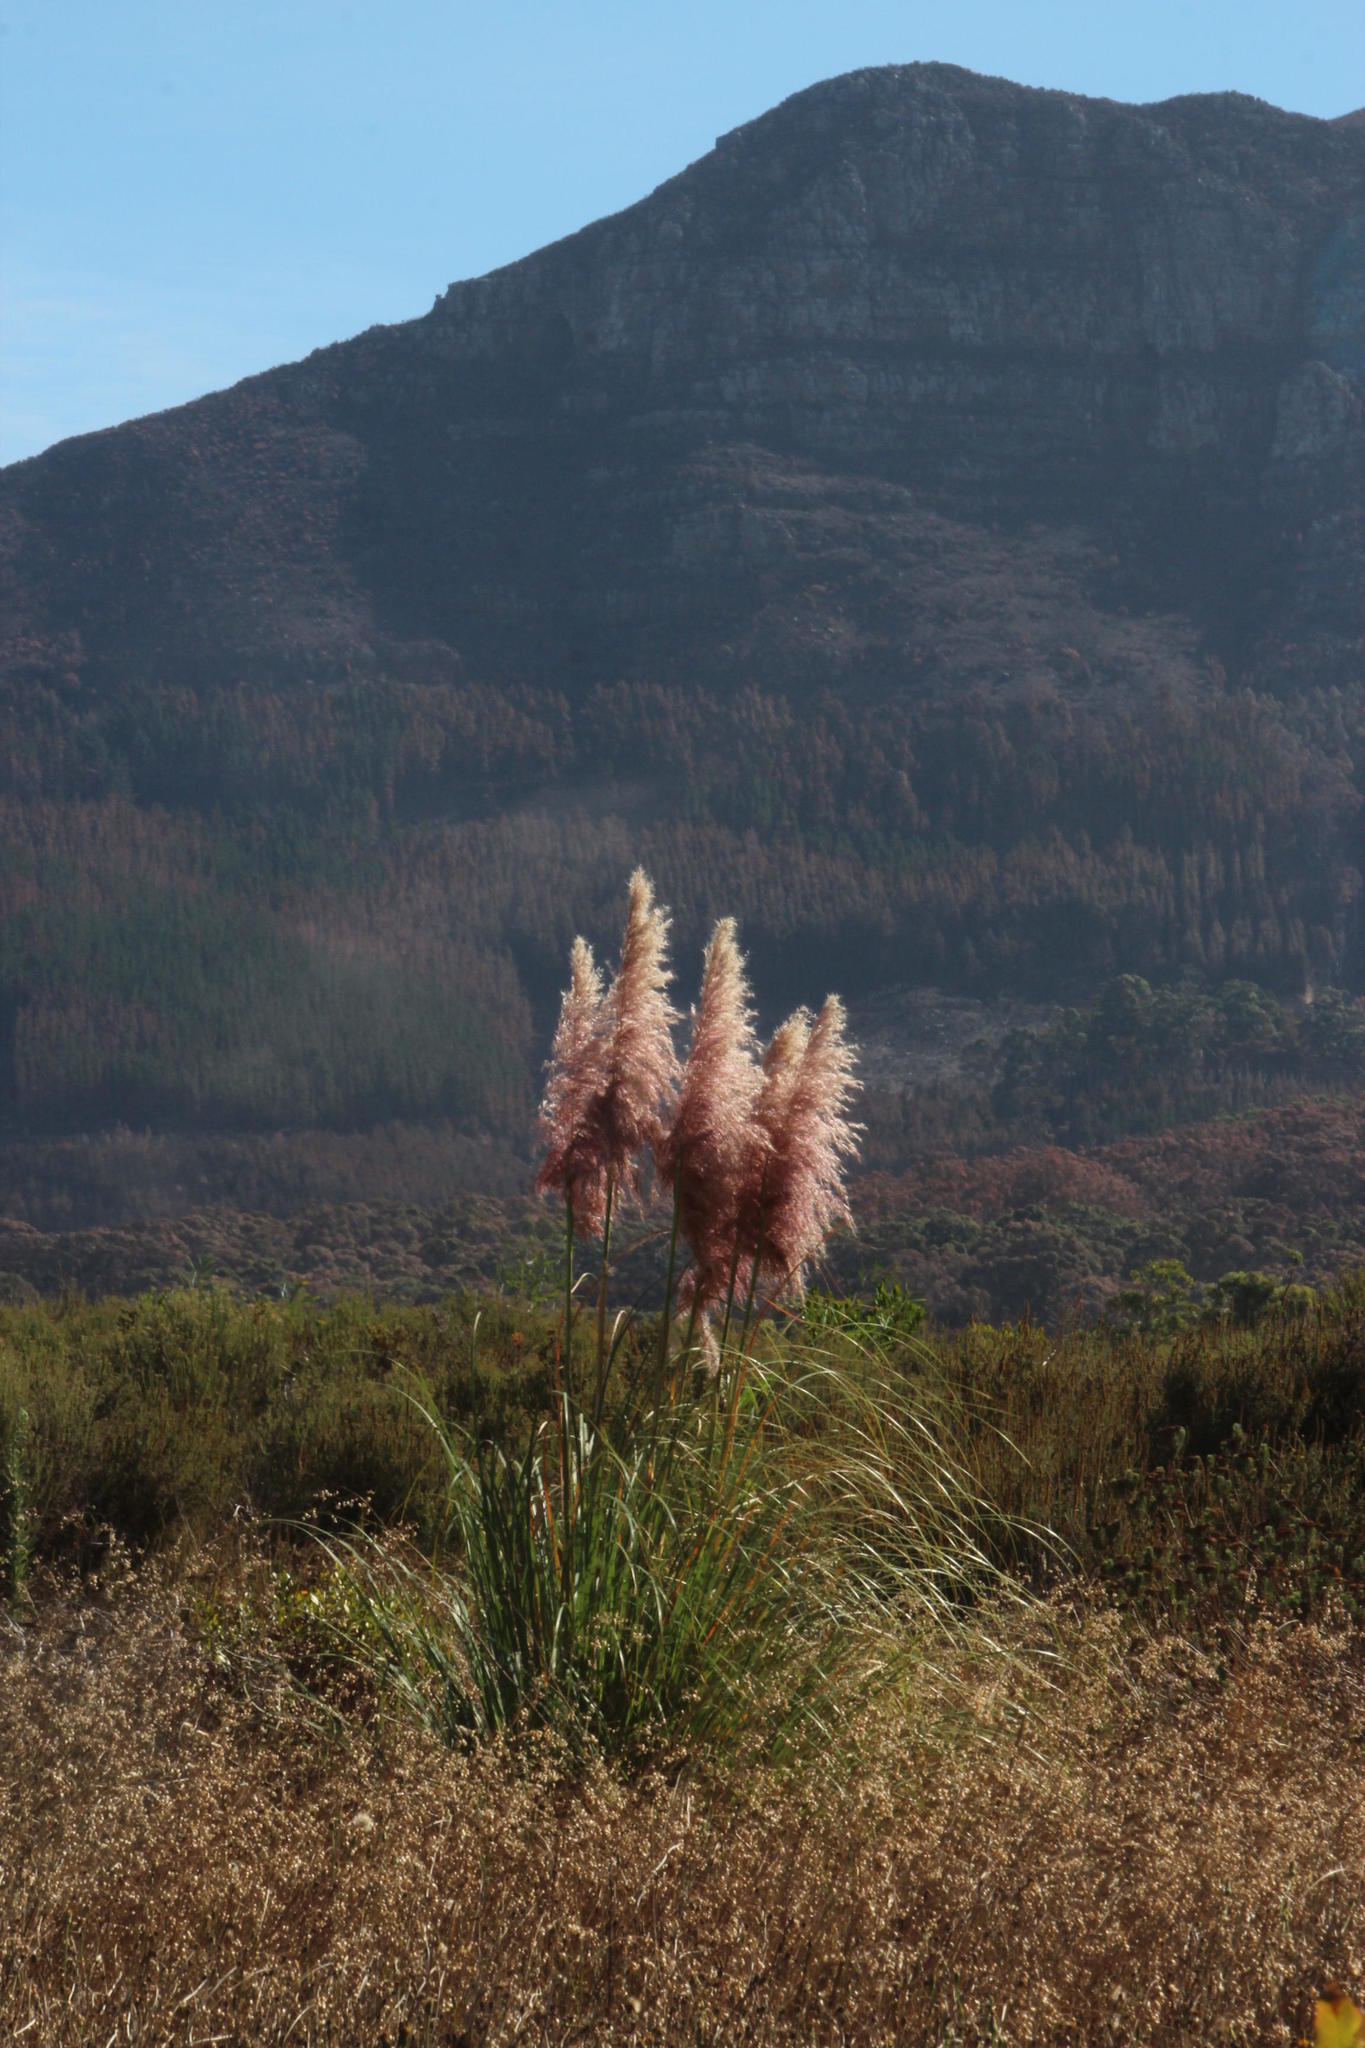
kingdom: Plantae
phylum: Tracheophyta
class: Liliopsida
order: Poales
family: Poaceae
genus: Cortaderia
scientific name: Cortaderia selloana
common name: Uruguayan pampas grass
